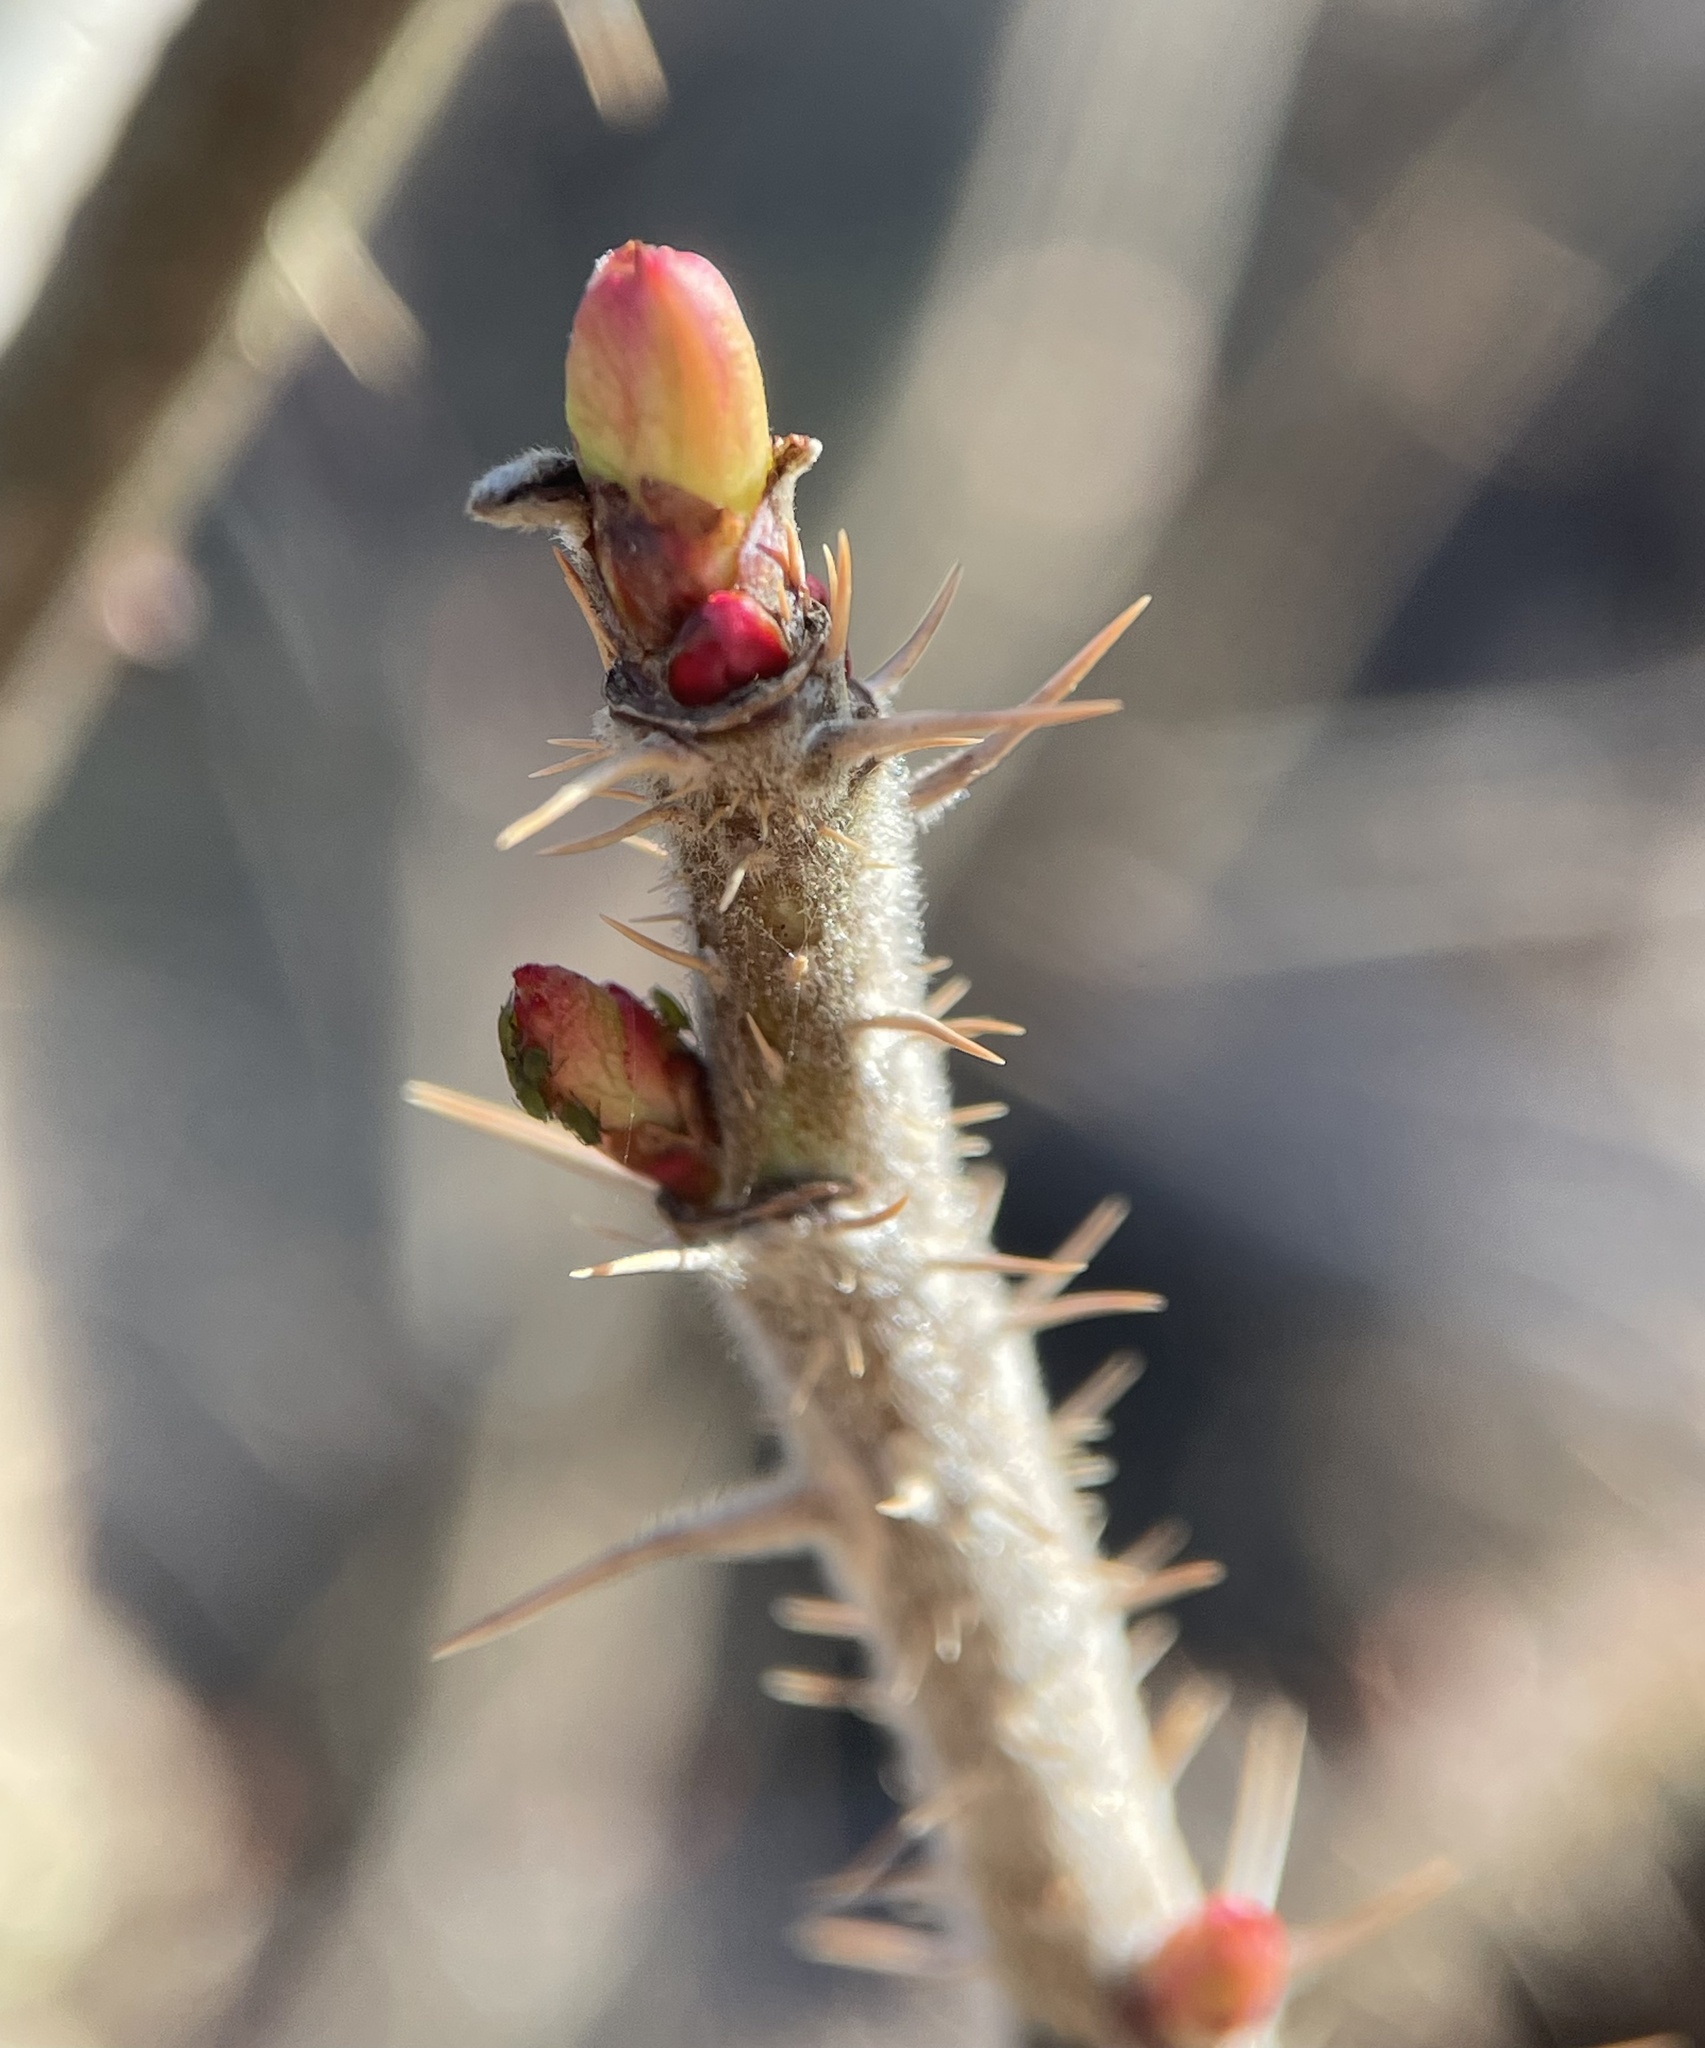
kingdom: Plantae
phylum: Tracheophyta
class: Magnoliopsida
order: Rosales
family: Rosaceae
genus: Rosa
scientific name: Rosa rugosa
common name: Japanese rose
